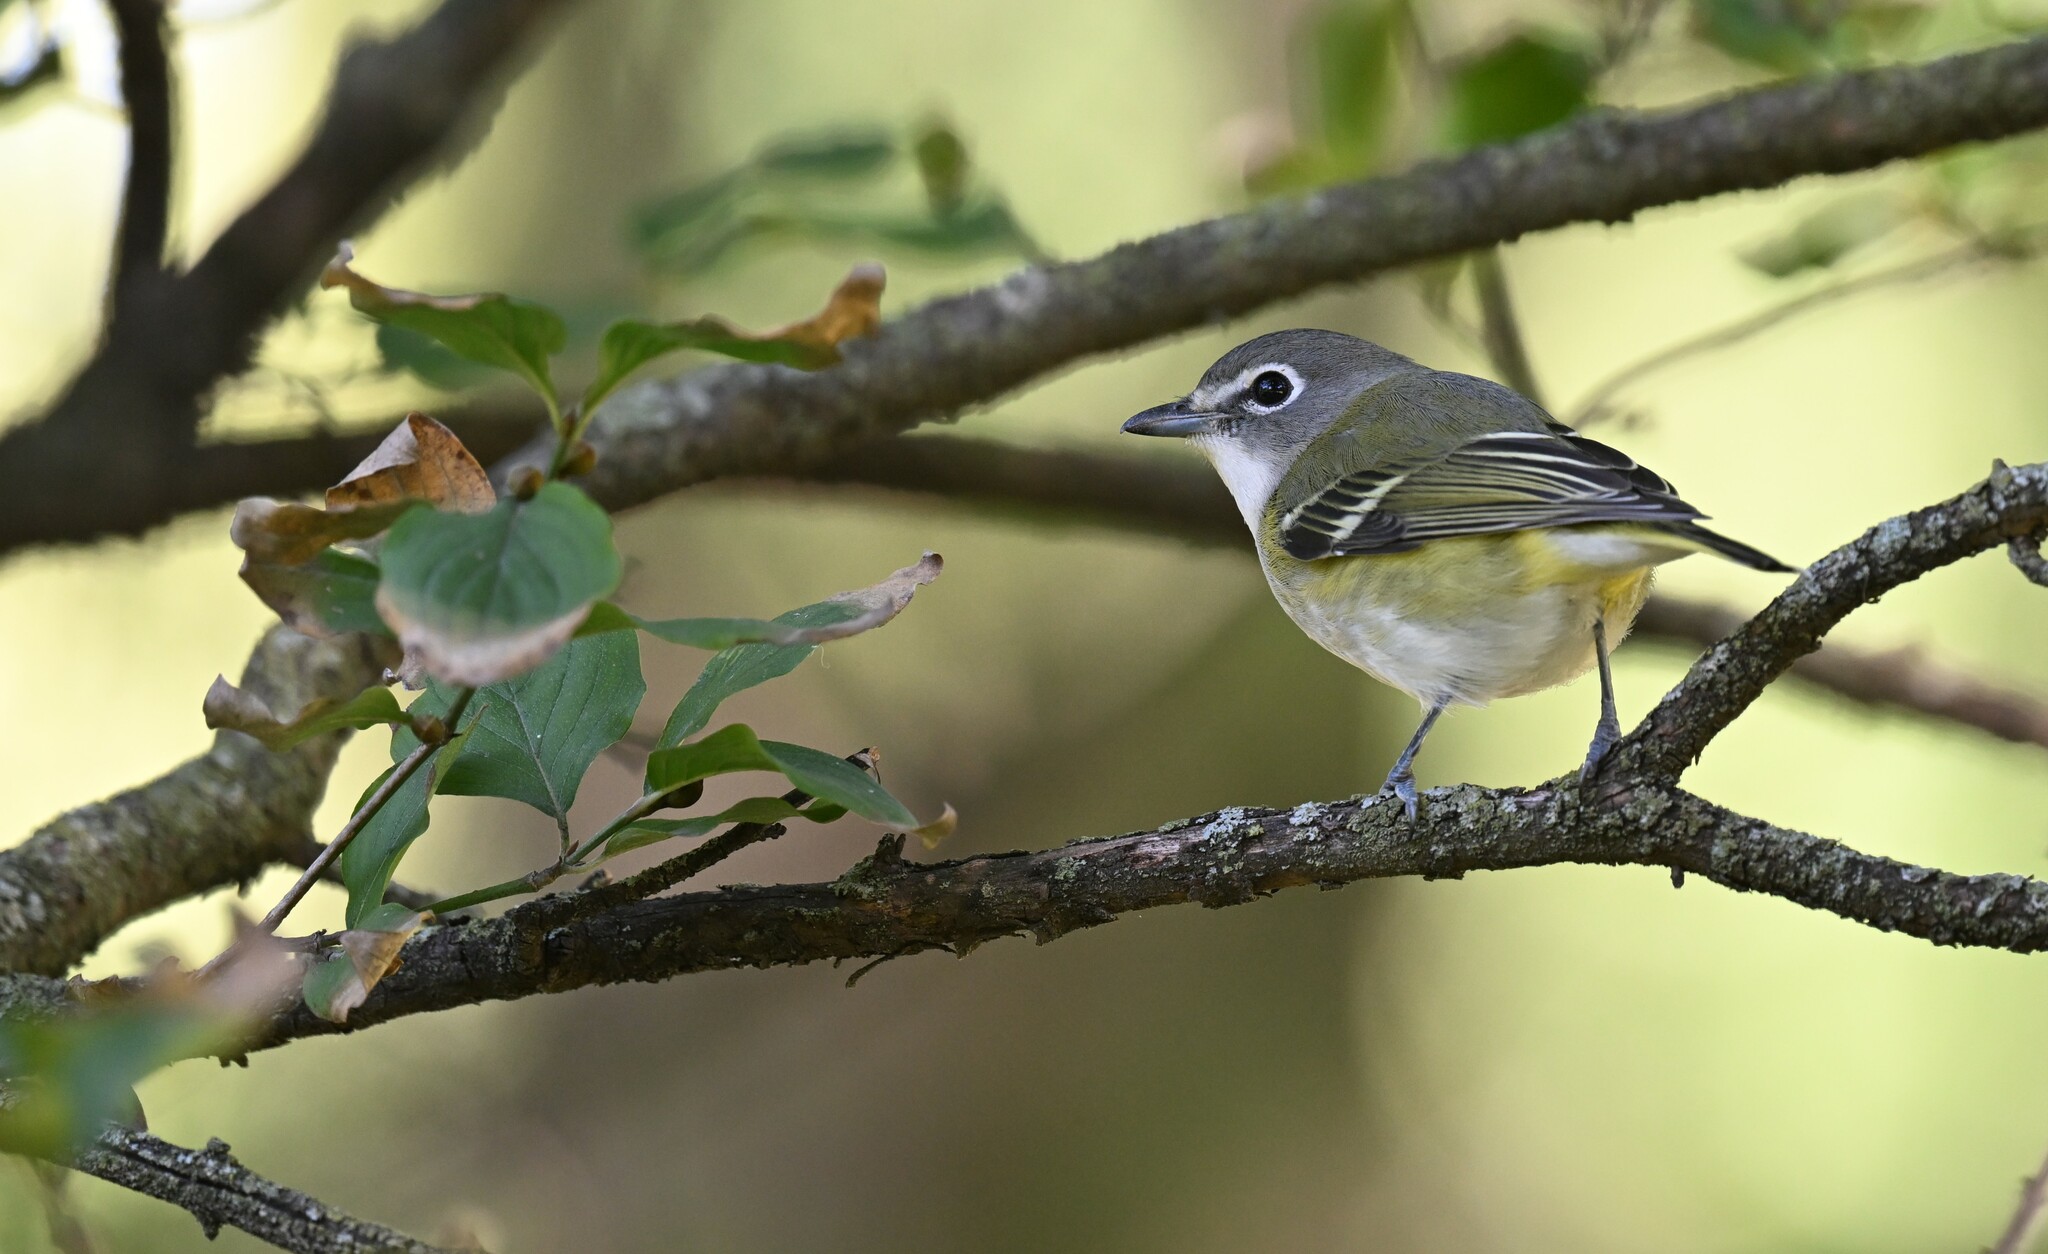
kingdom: Animalia
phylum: Chordata
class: Aves
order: Passeriformes
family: Vireonidae
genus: Vireo
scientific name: Vireo solitarius
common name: Blue-headed vireo
